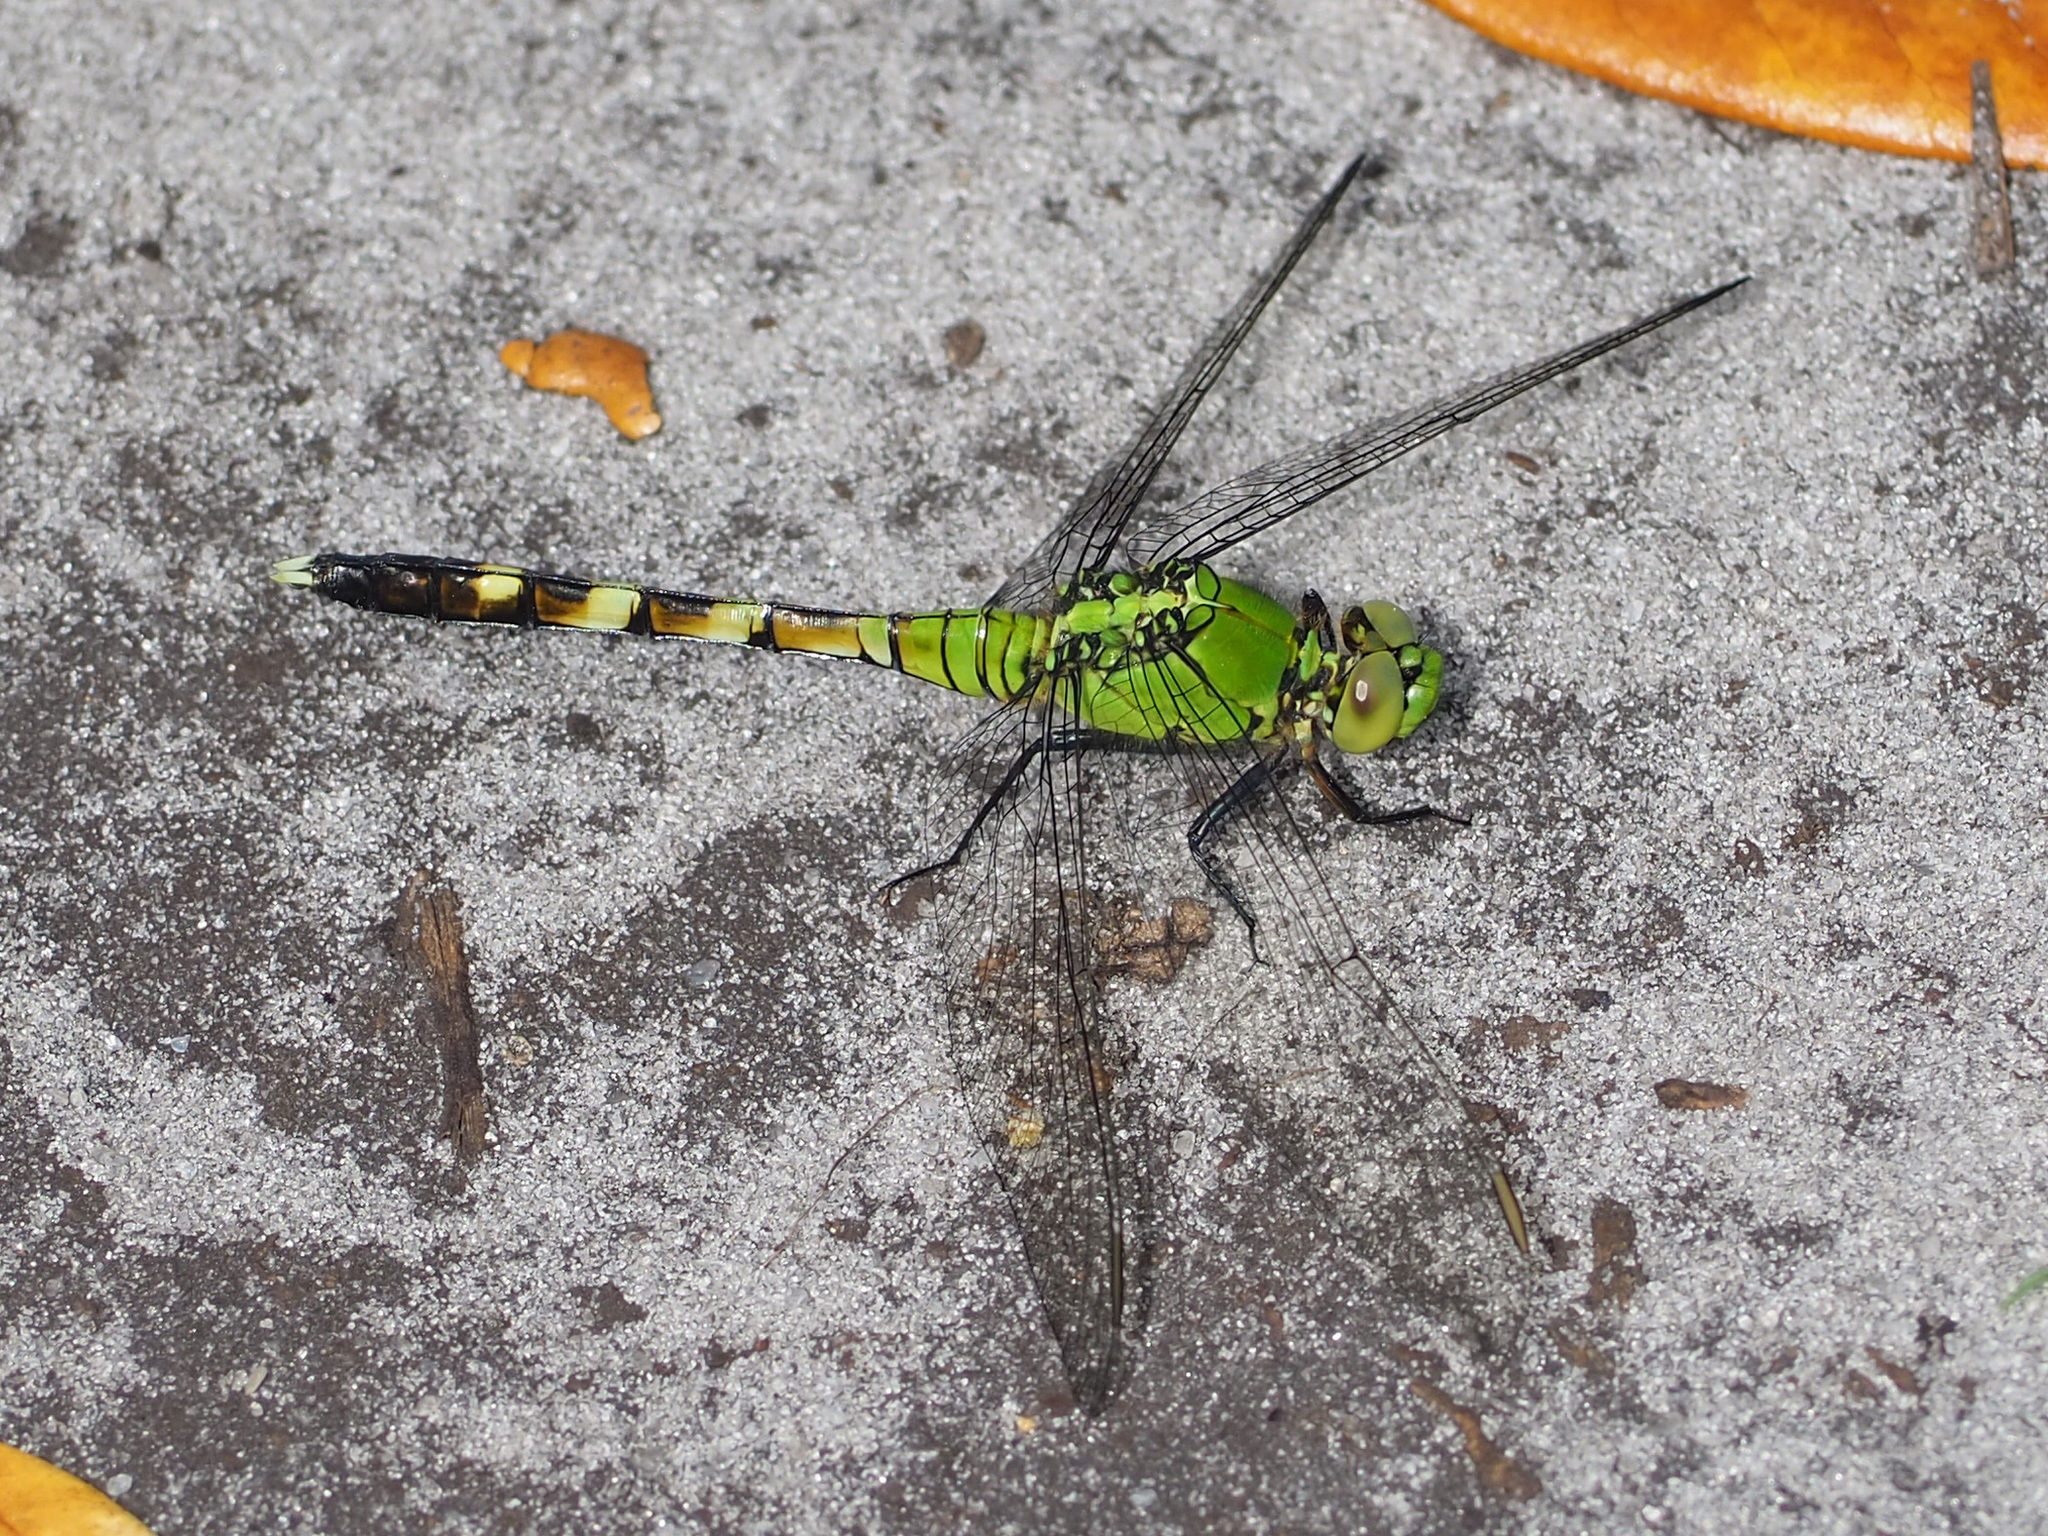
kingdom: Animalia
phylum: Arthropoda
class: Insecta
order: Odonata
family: Libellulidae
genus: Erythemis
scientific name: Erythemis simplicicollis
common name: Eastern pondhawk
